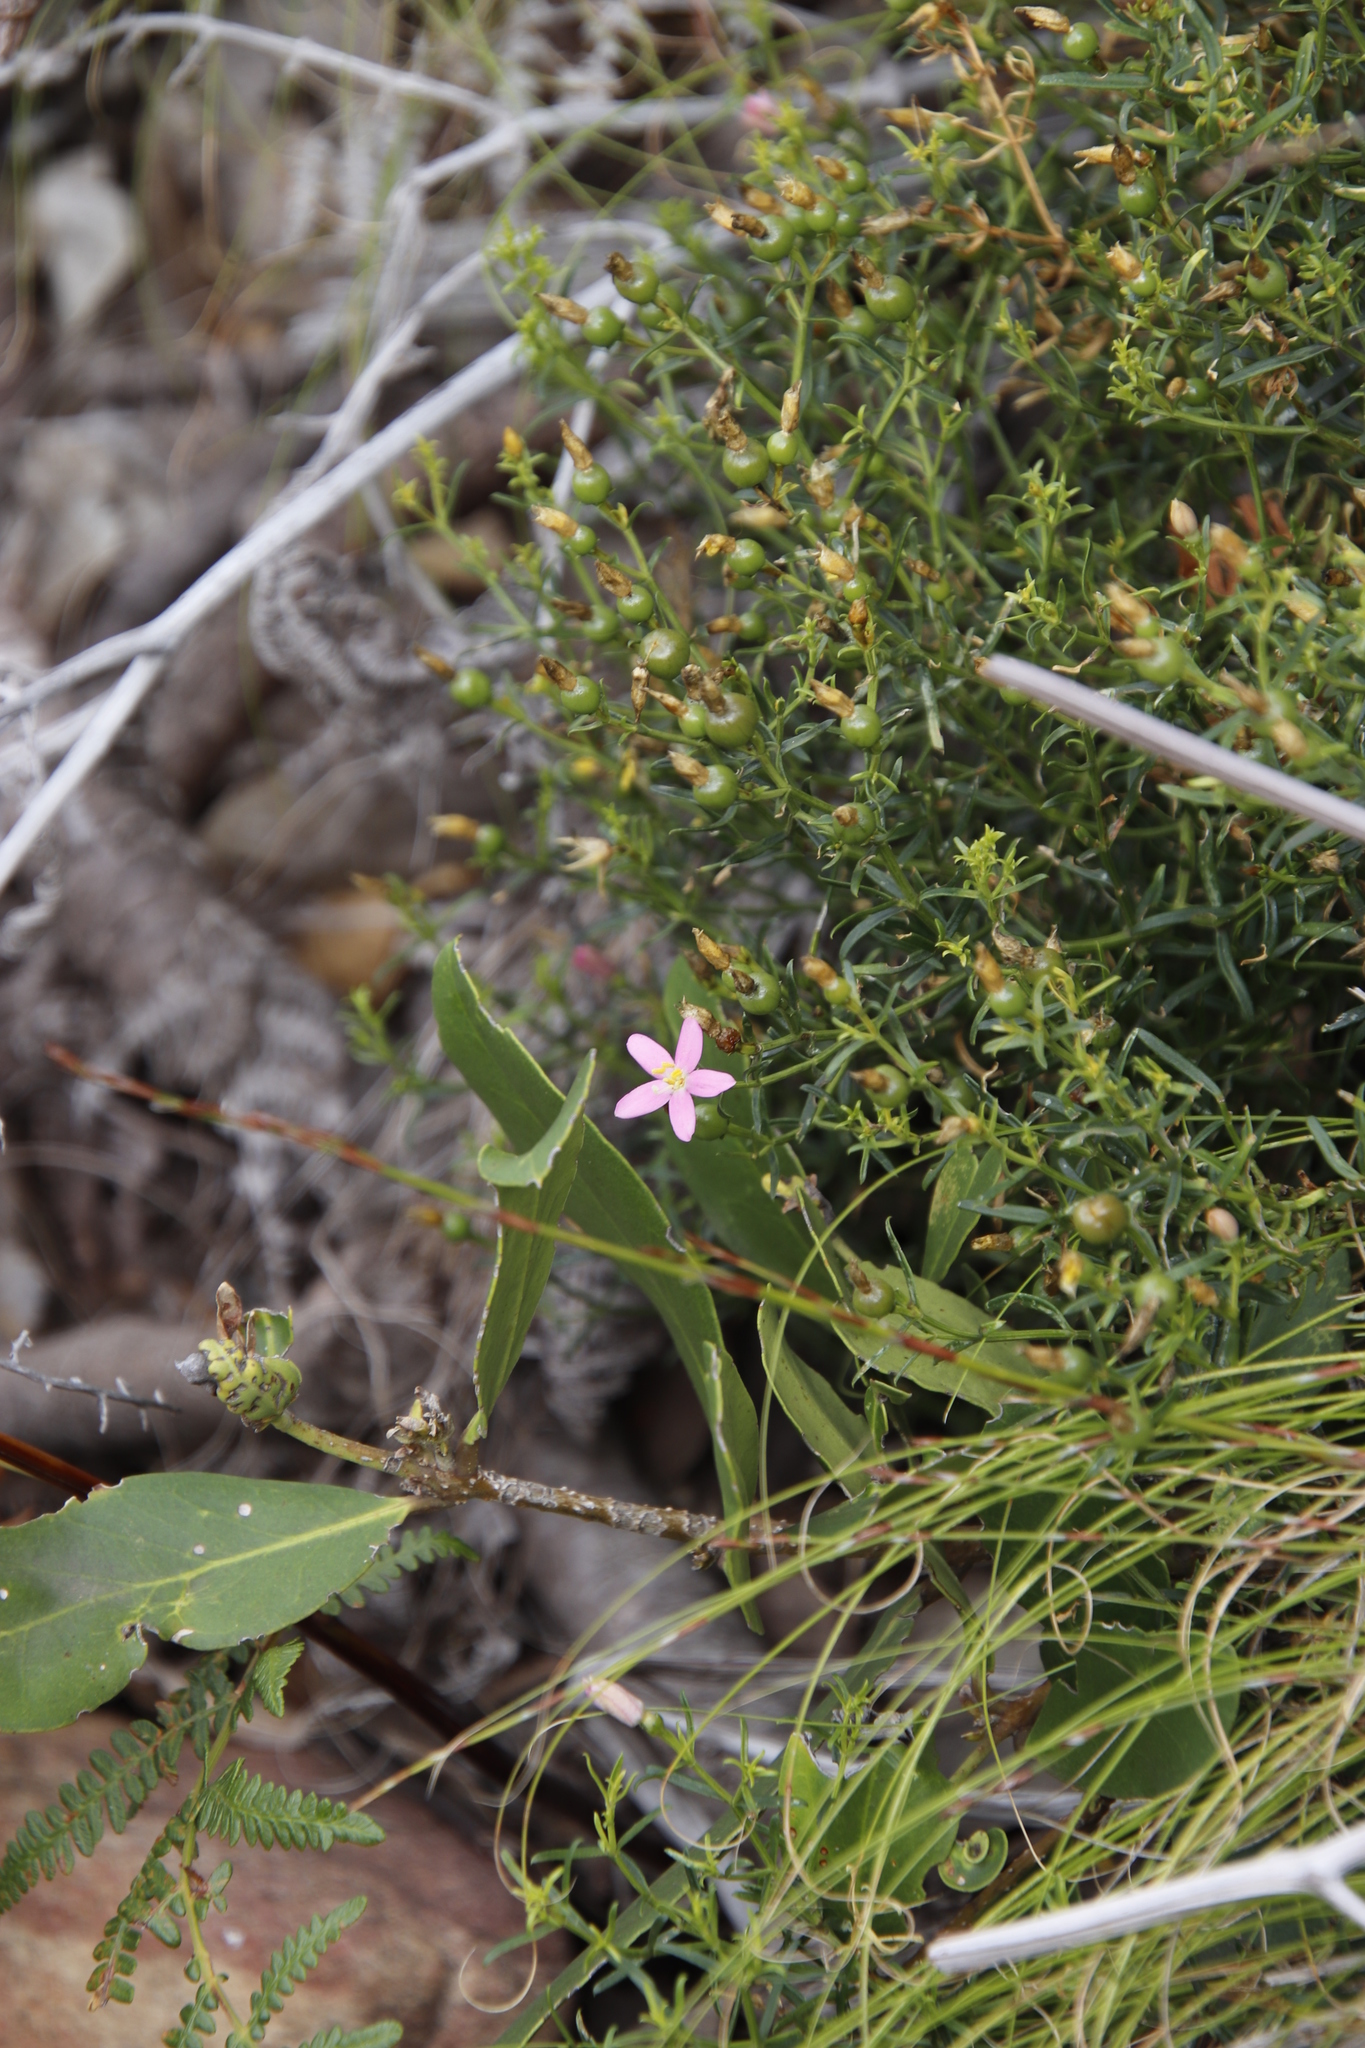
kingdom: Plantae
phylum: Tracheophyta
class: Magnoliopsida
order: Gentianales
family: Gentianaceae
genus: Chironia
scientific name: Chironia baccifera
